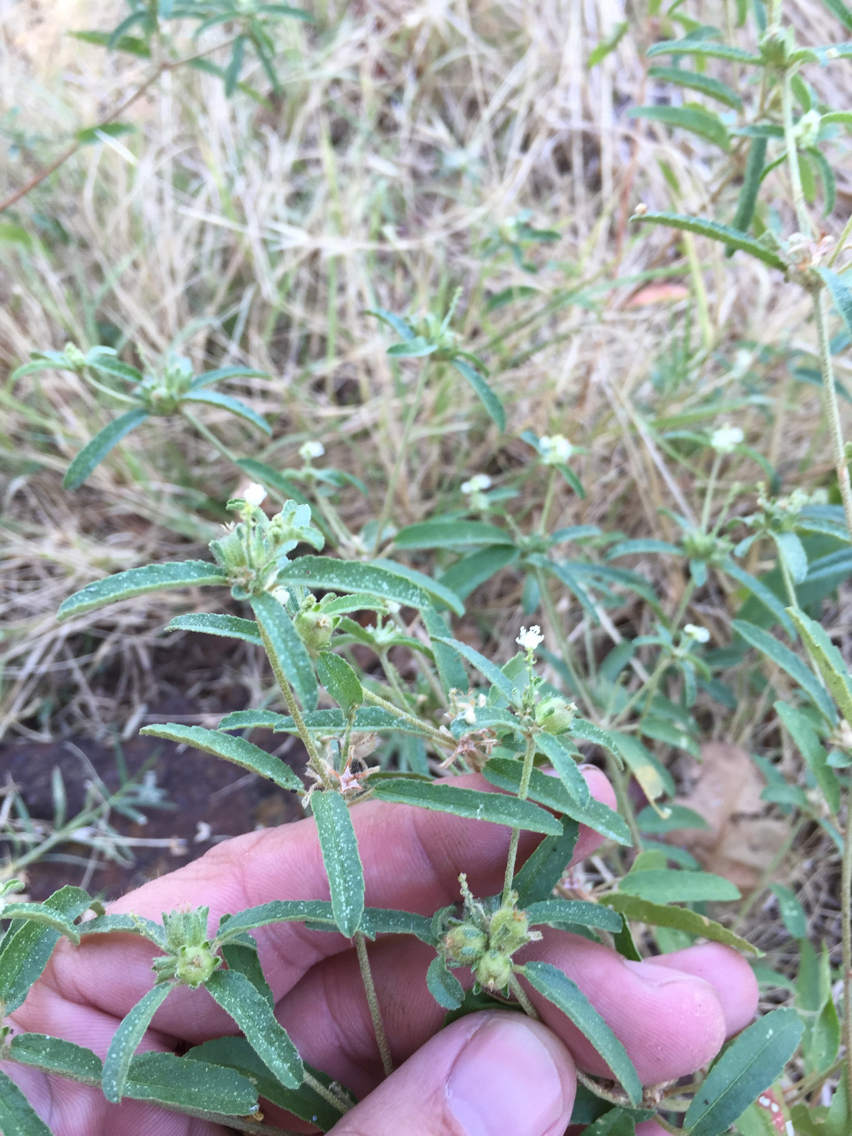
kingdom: Plantae
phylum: Tracheophyta
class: Magnoliopsida
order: Malpighiales
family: Euphorbiaceae
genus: Croton
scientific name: Croton glandulosus
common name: Tropic croton
